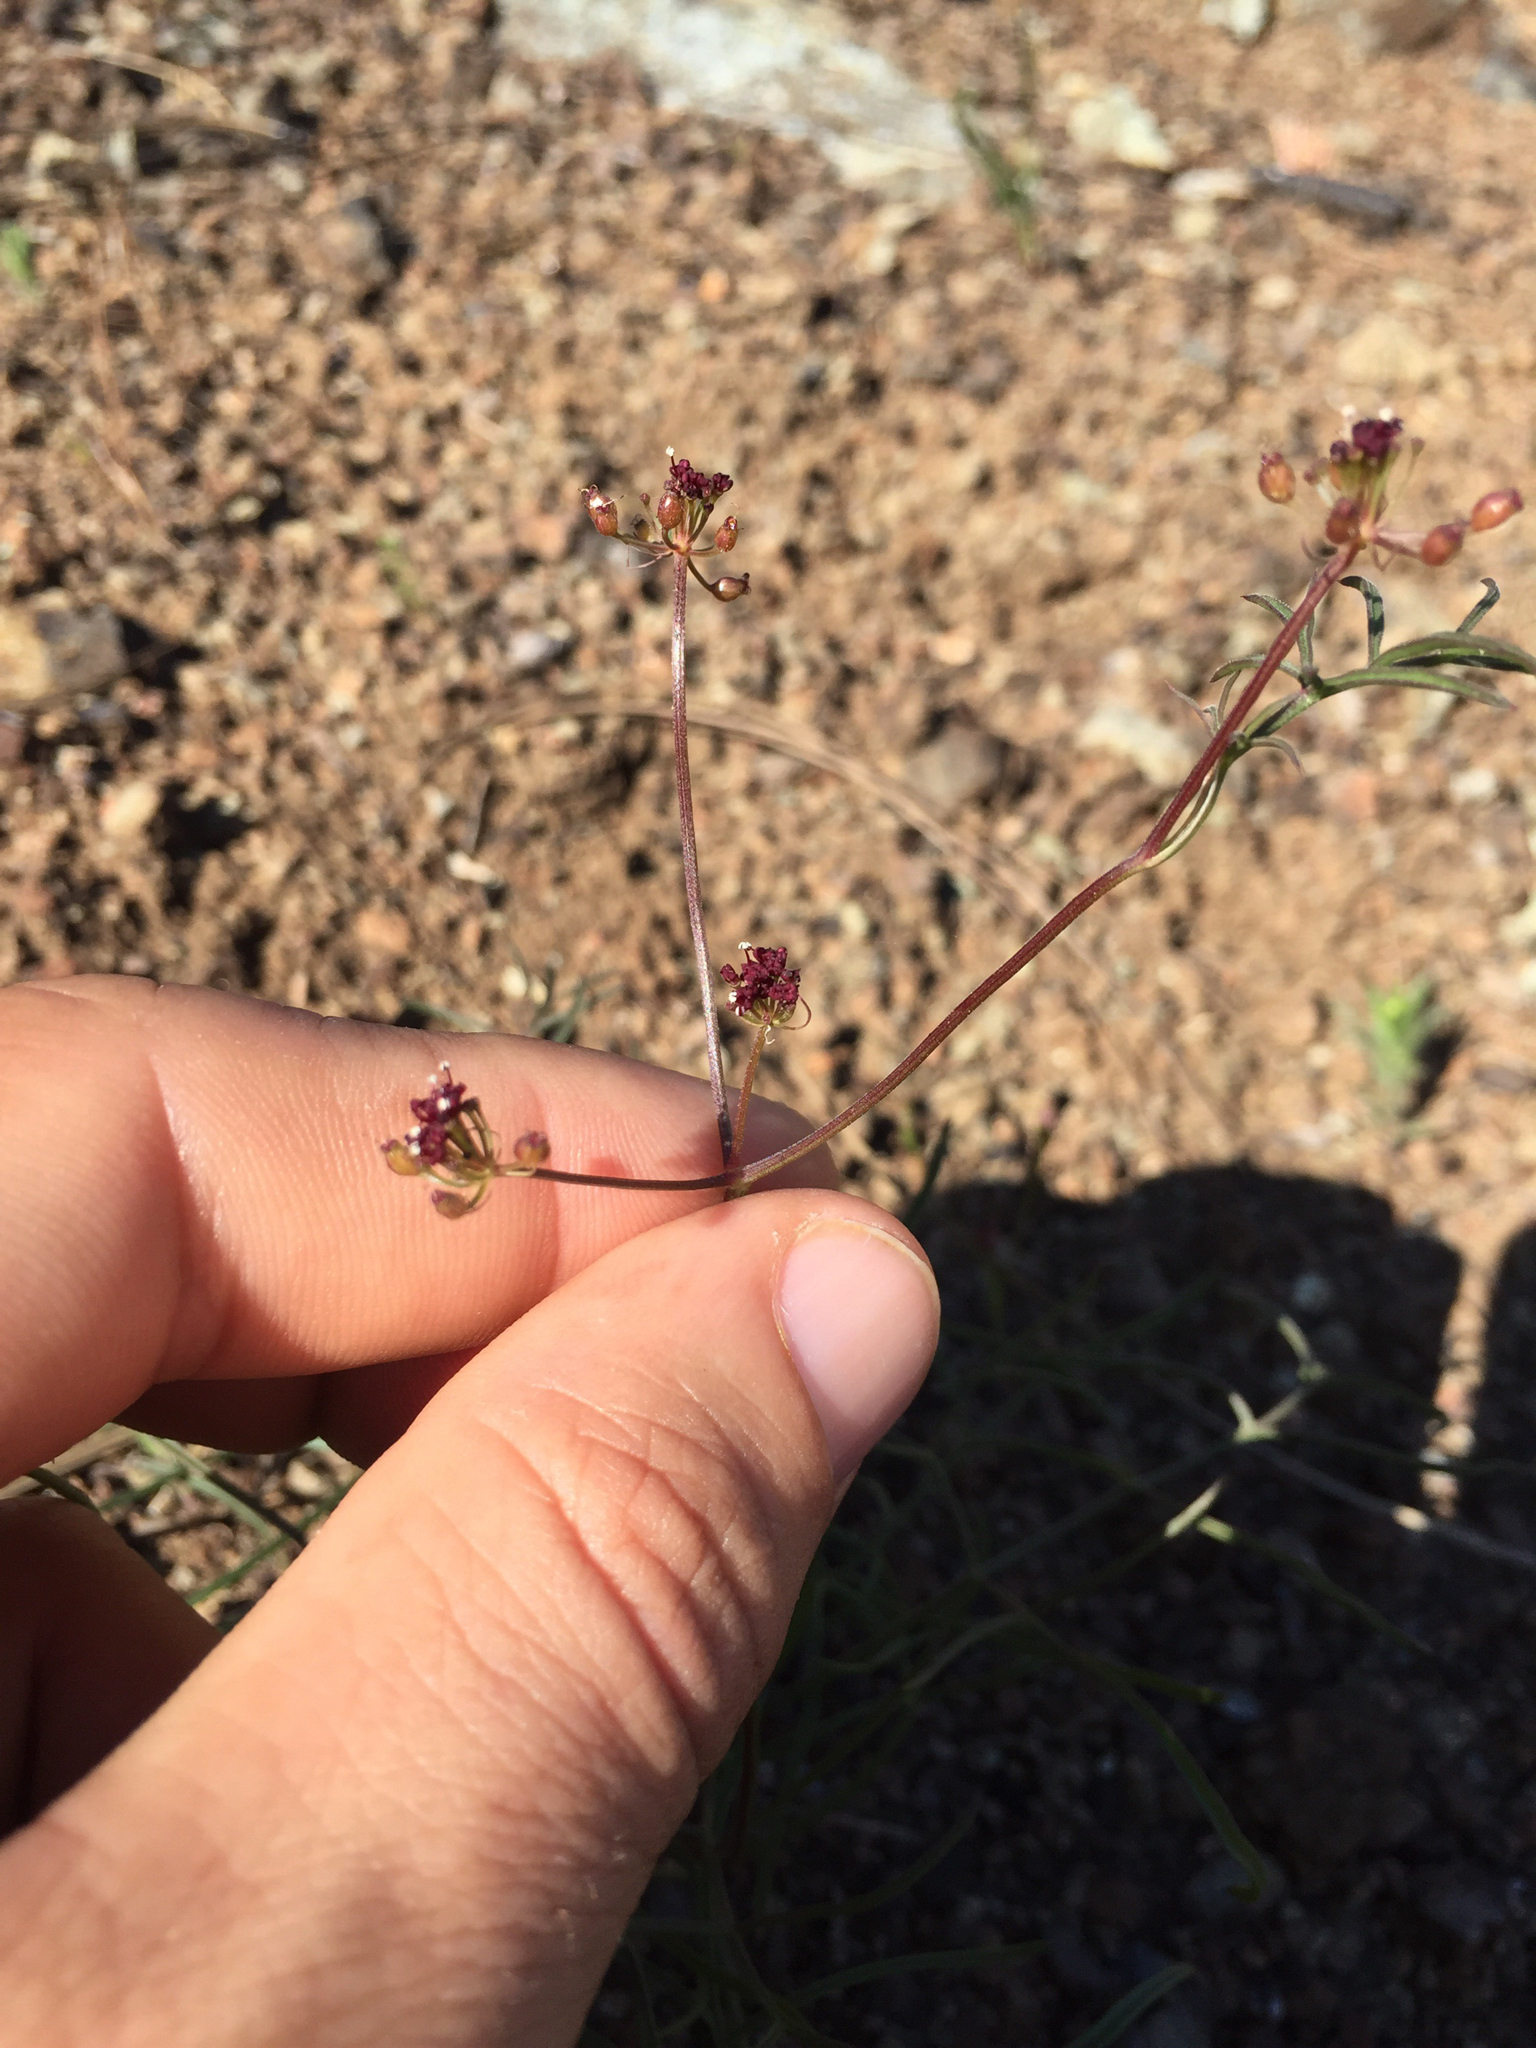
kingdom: Plantae
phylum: Tracheophyta
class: Magnoliopsida
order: Apiales
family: Apiaceae
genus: Lomatium
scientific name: Lomatium marginatum
